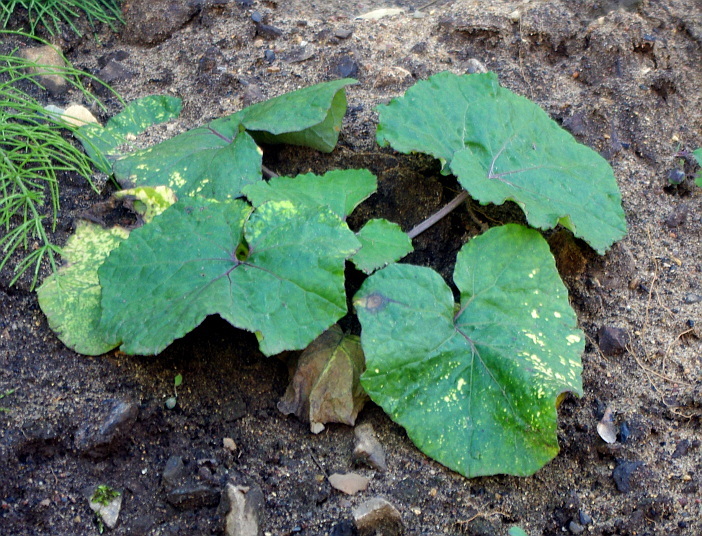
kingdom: Plantae
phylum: Tracheophyta
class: Magnoliopsida
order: Asterales
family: Asteraceae
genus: Tussilago
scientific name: Tussilago farfara
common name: Coltsfoot
